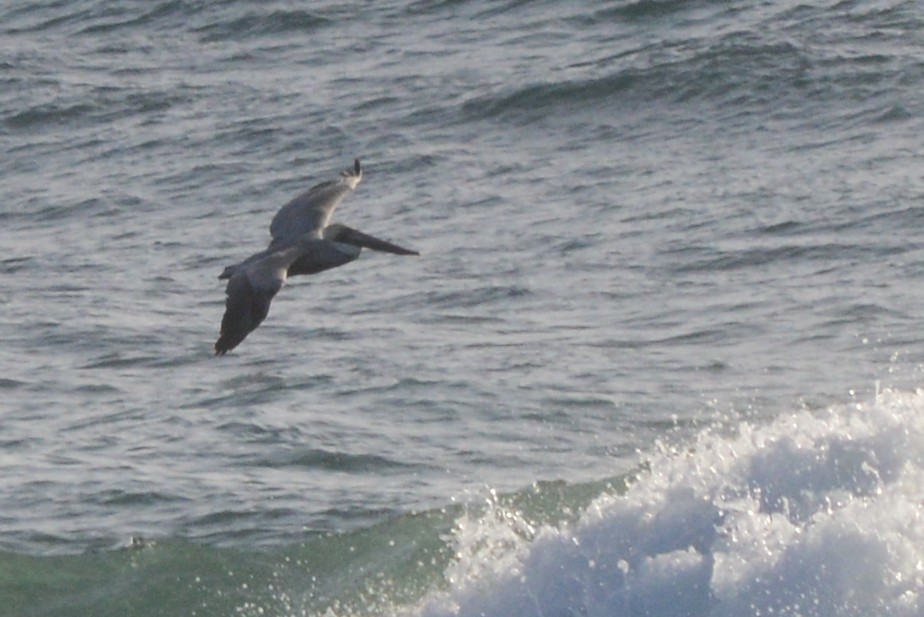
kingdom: Animalia
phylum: Chordata
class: Aves
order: Pelecaniformes
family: Pelecanidae
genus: Pelecanus
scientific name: Pelecanus occidentalis
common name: Brown pelican
